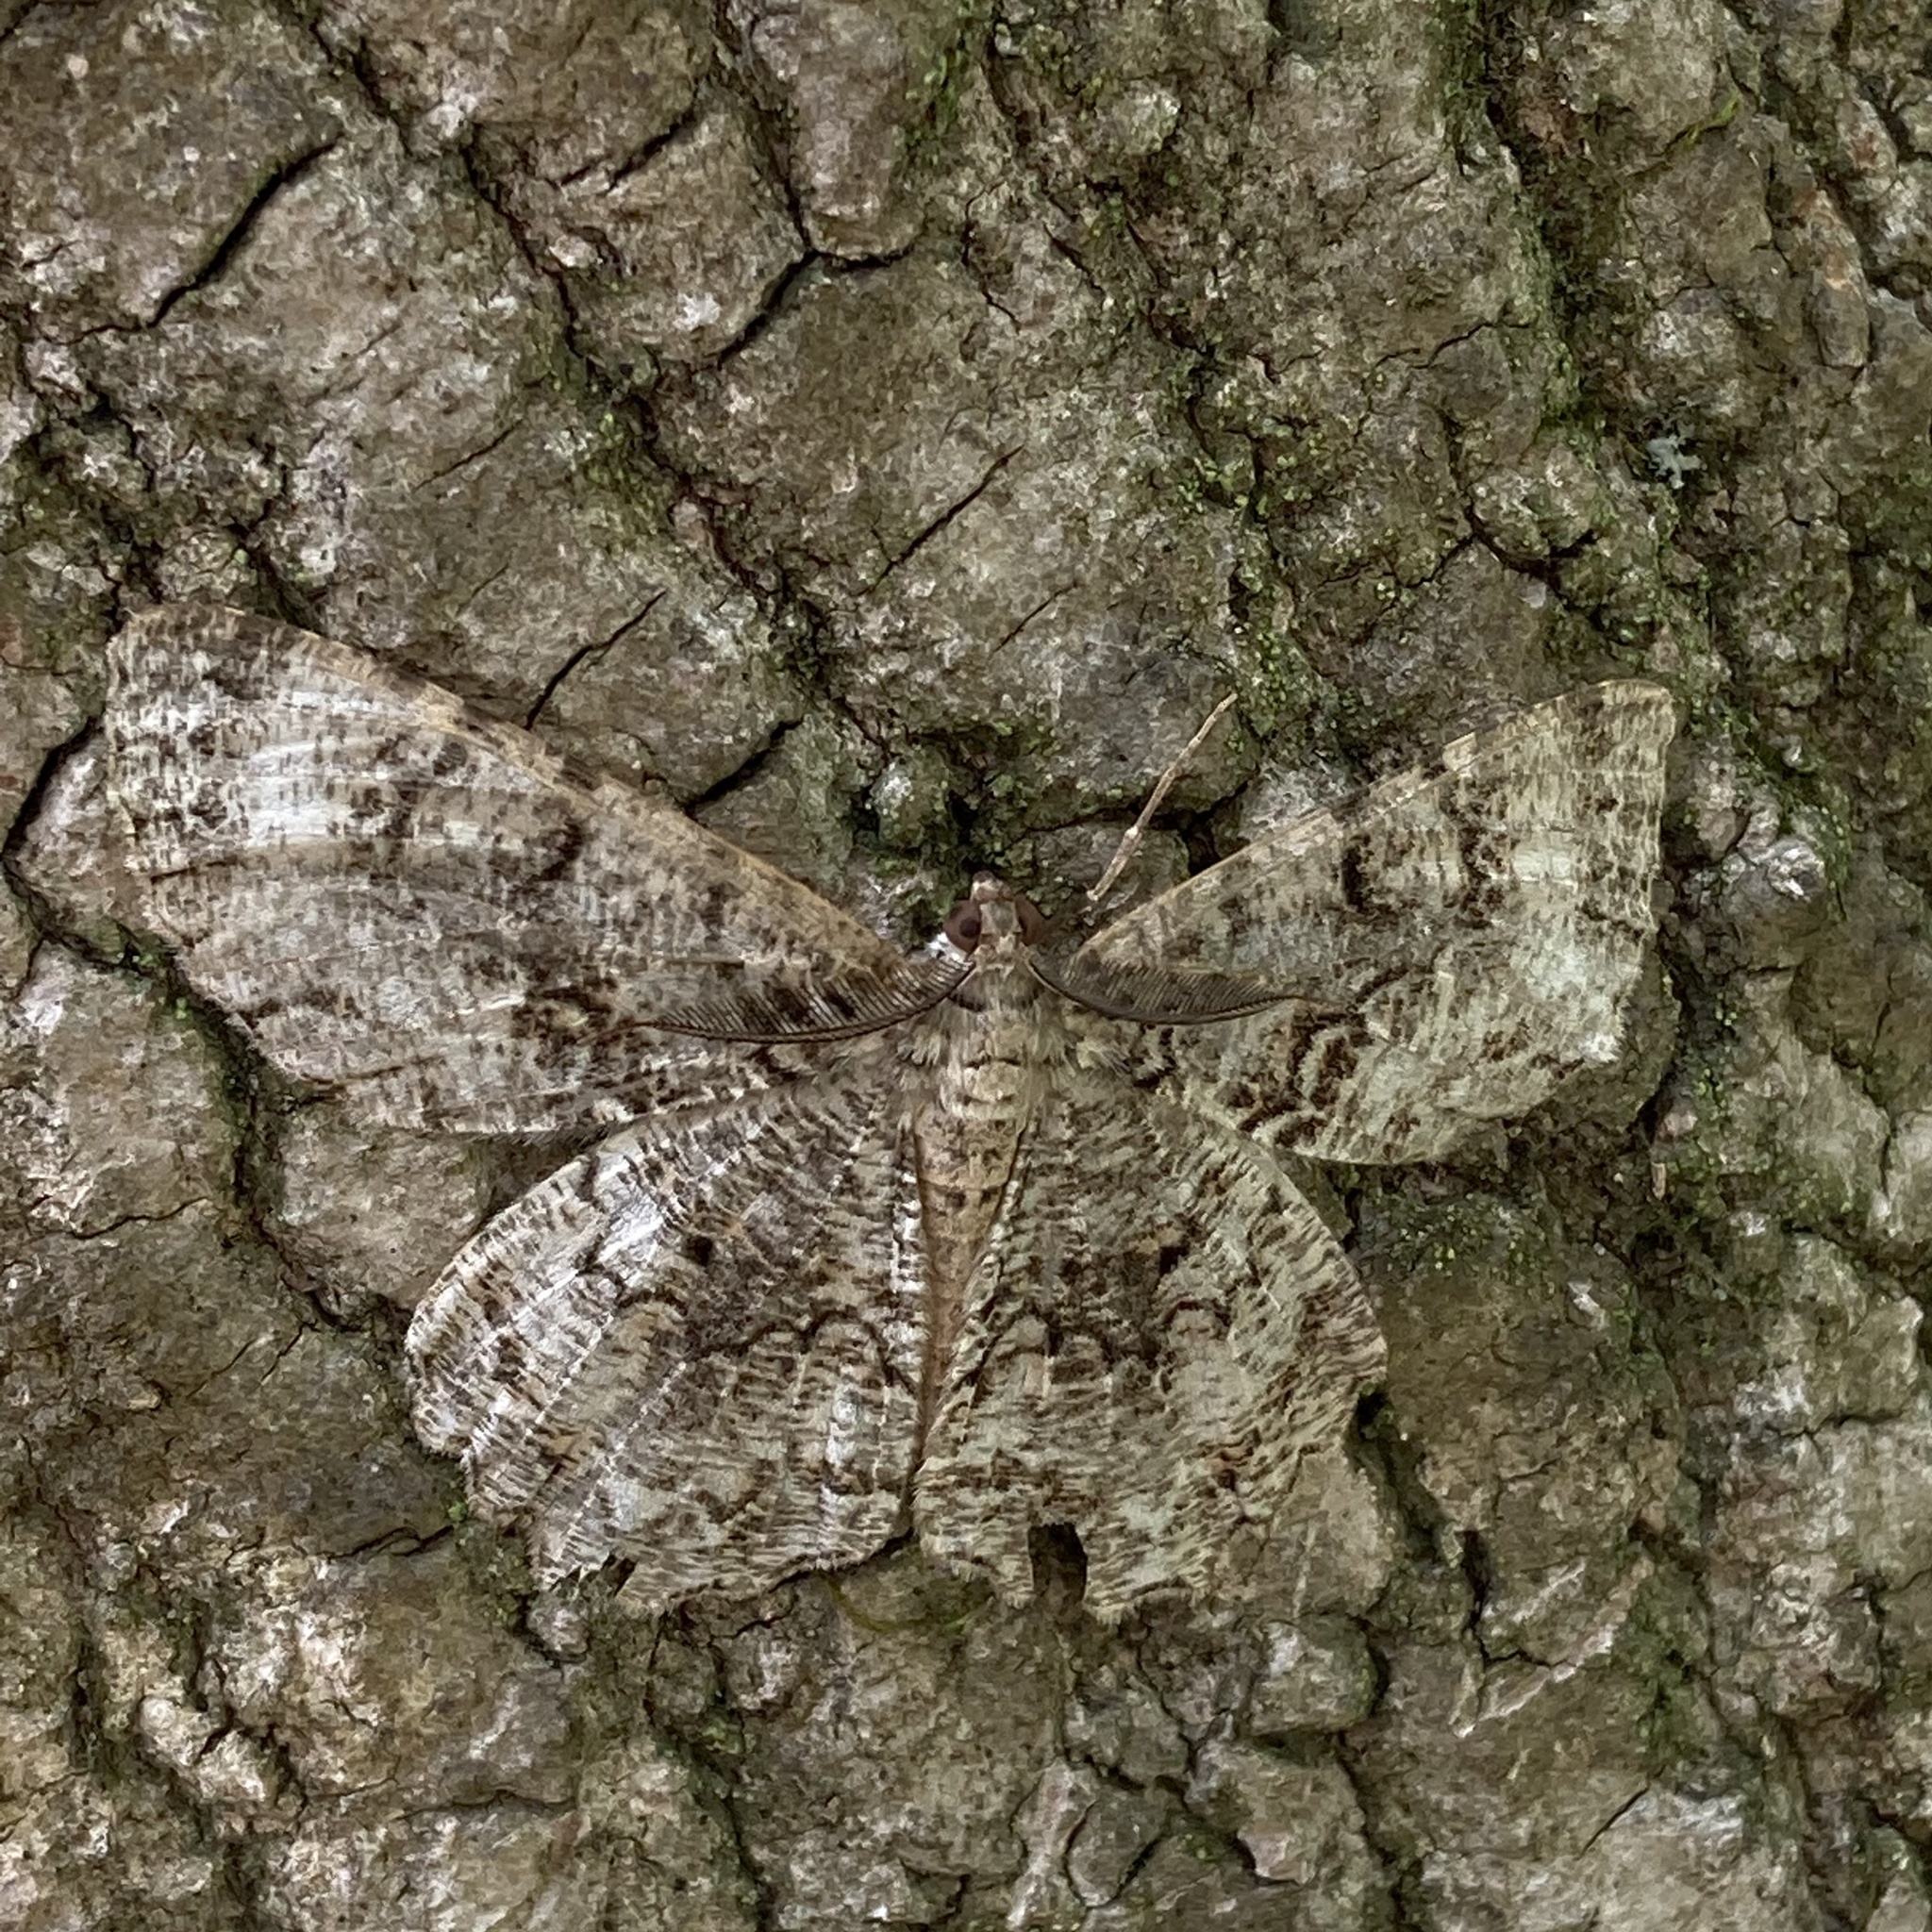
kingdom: Animalia
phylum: Arthropoda
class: Insecta
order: Lepidoptera
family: Geometridae
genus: Epimecis
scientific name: Epimecis hortaria
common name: Tulip-tree beauty
